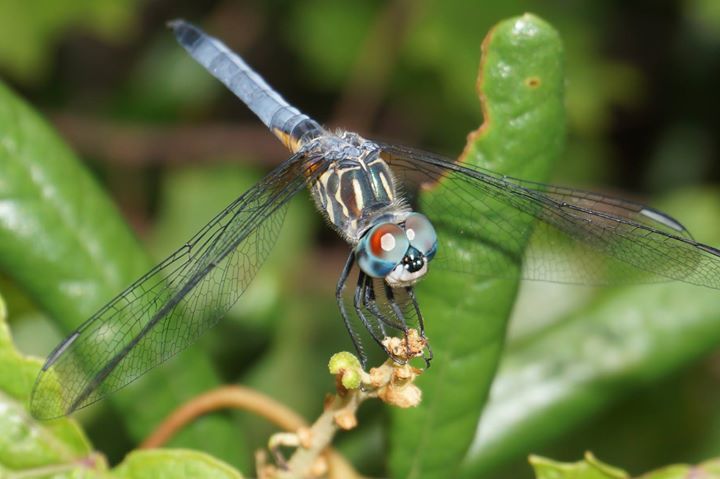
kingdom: Animalia
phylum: Arthropoda
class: Insecta
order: Odonata
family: Libellulidae
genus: Pachydiplax
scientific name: Pachydiplax longipennis
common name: Blue dasher
